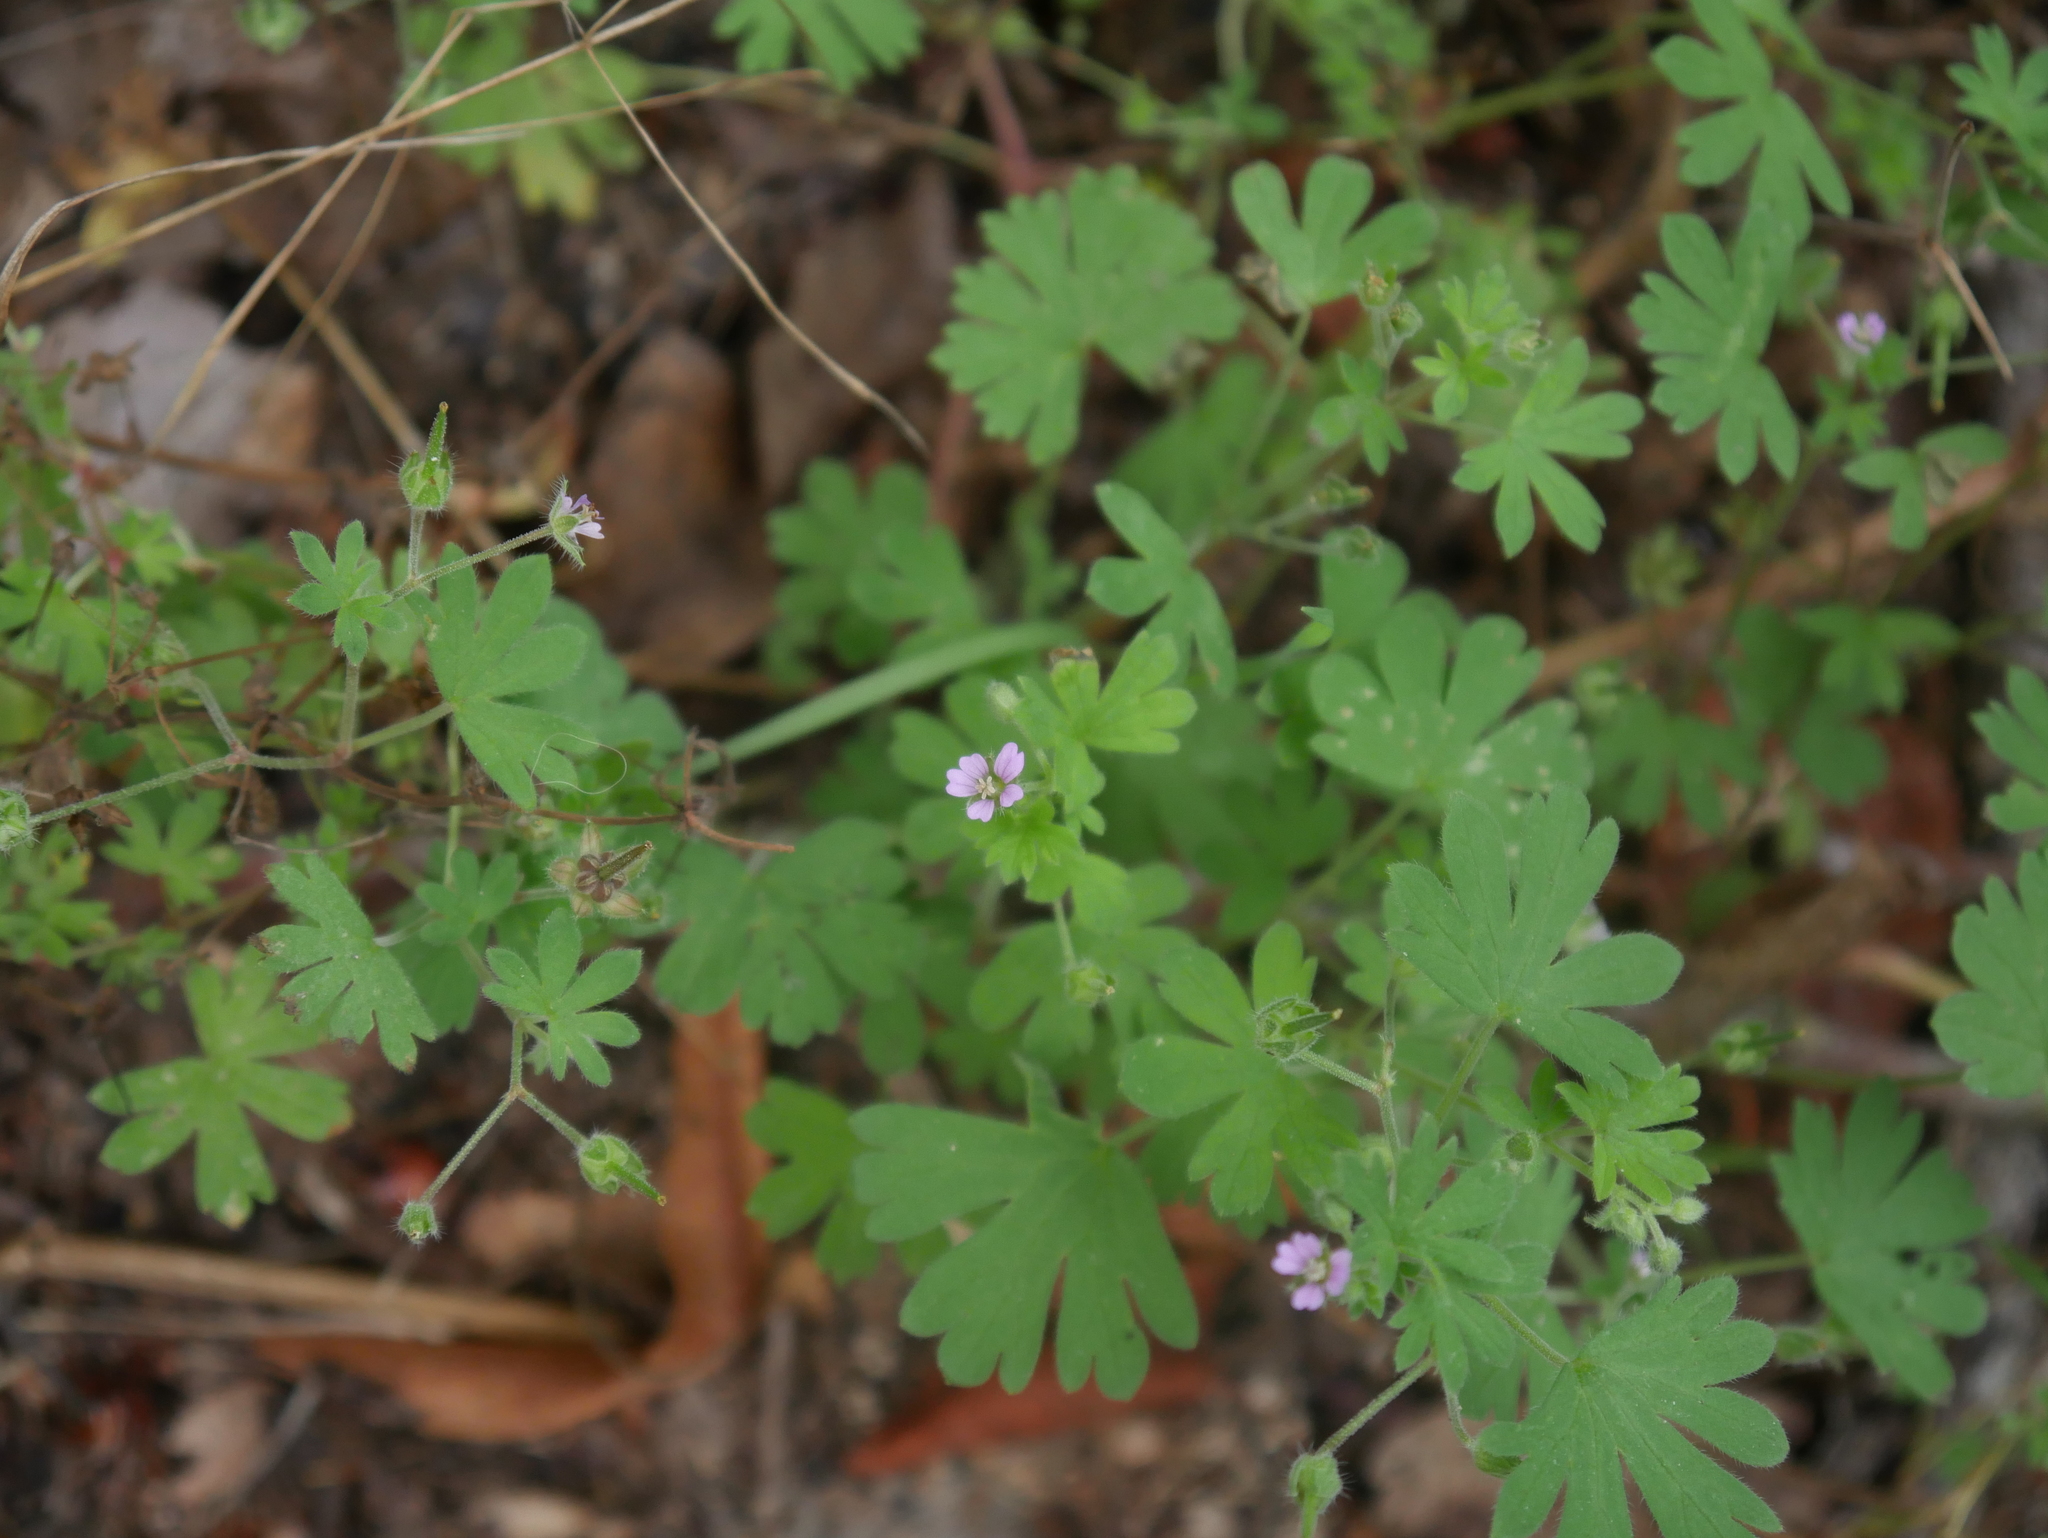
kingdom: Plantae
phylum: Tracheophyta
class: Magnoliopsida
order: Geraniales
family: Geraniaceae
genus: Geranium
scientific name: Geranium pusillum
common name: Small geranium
